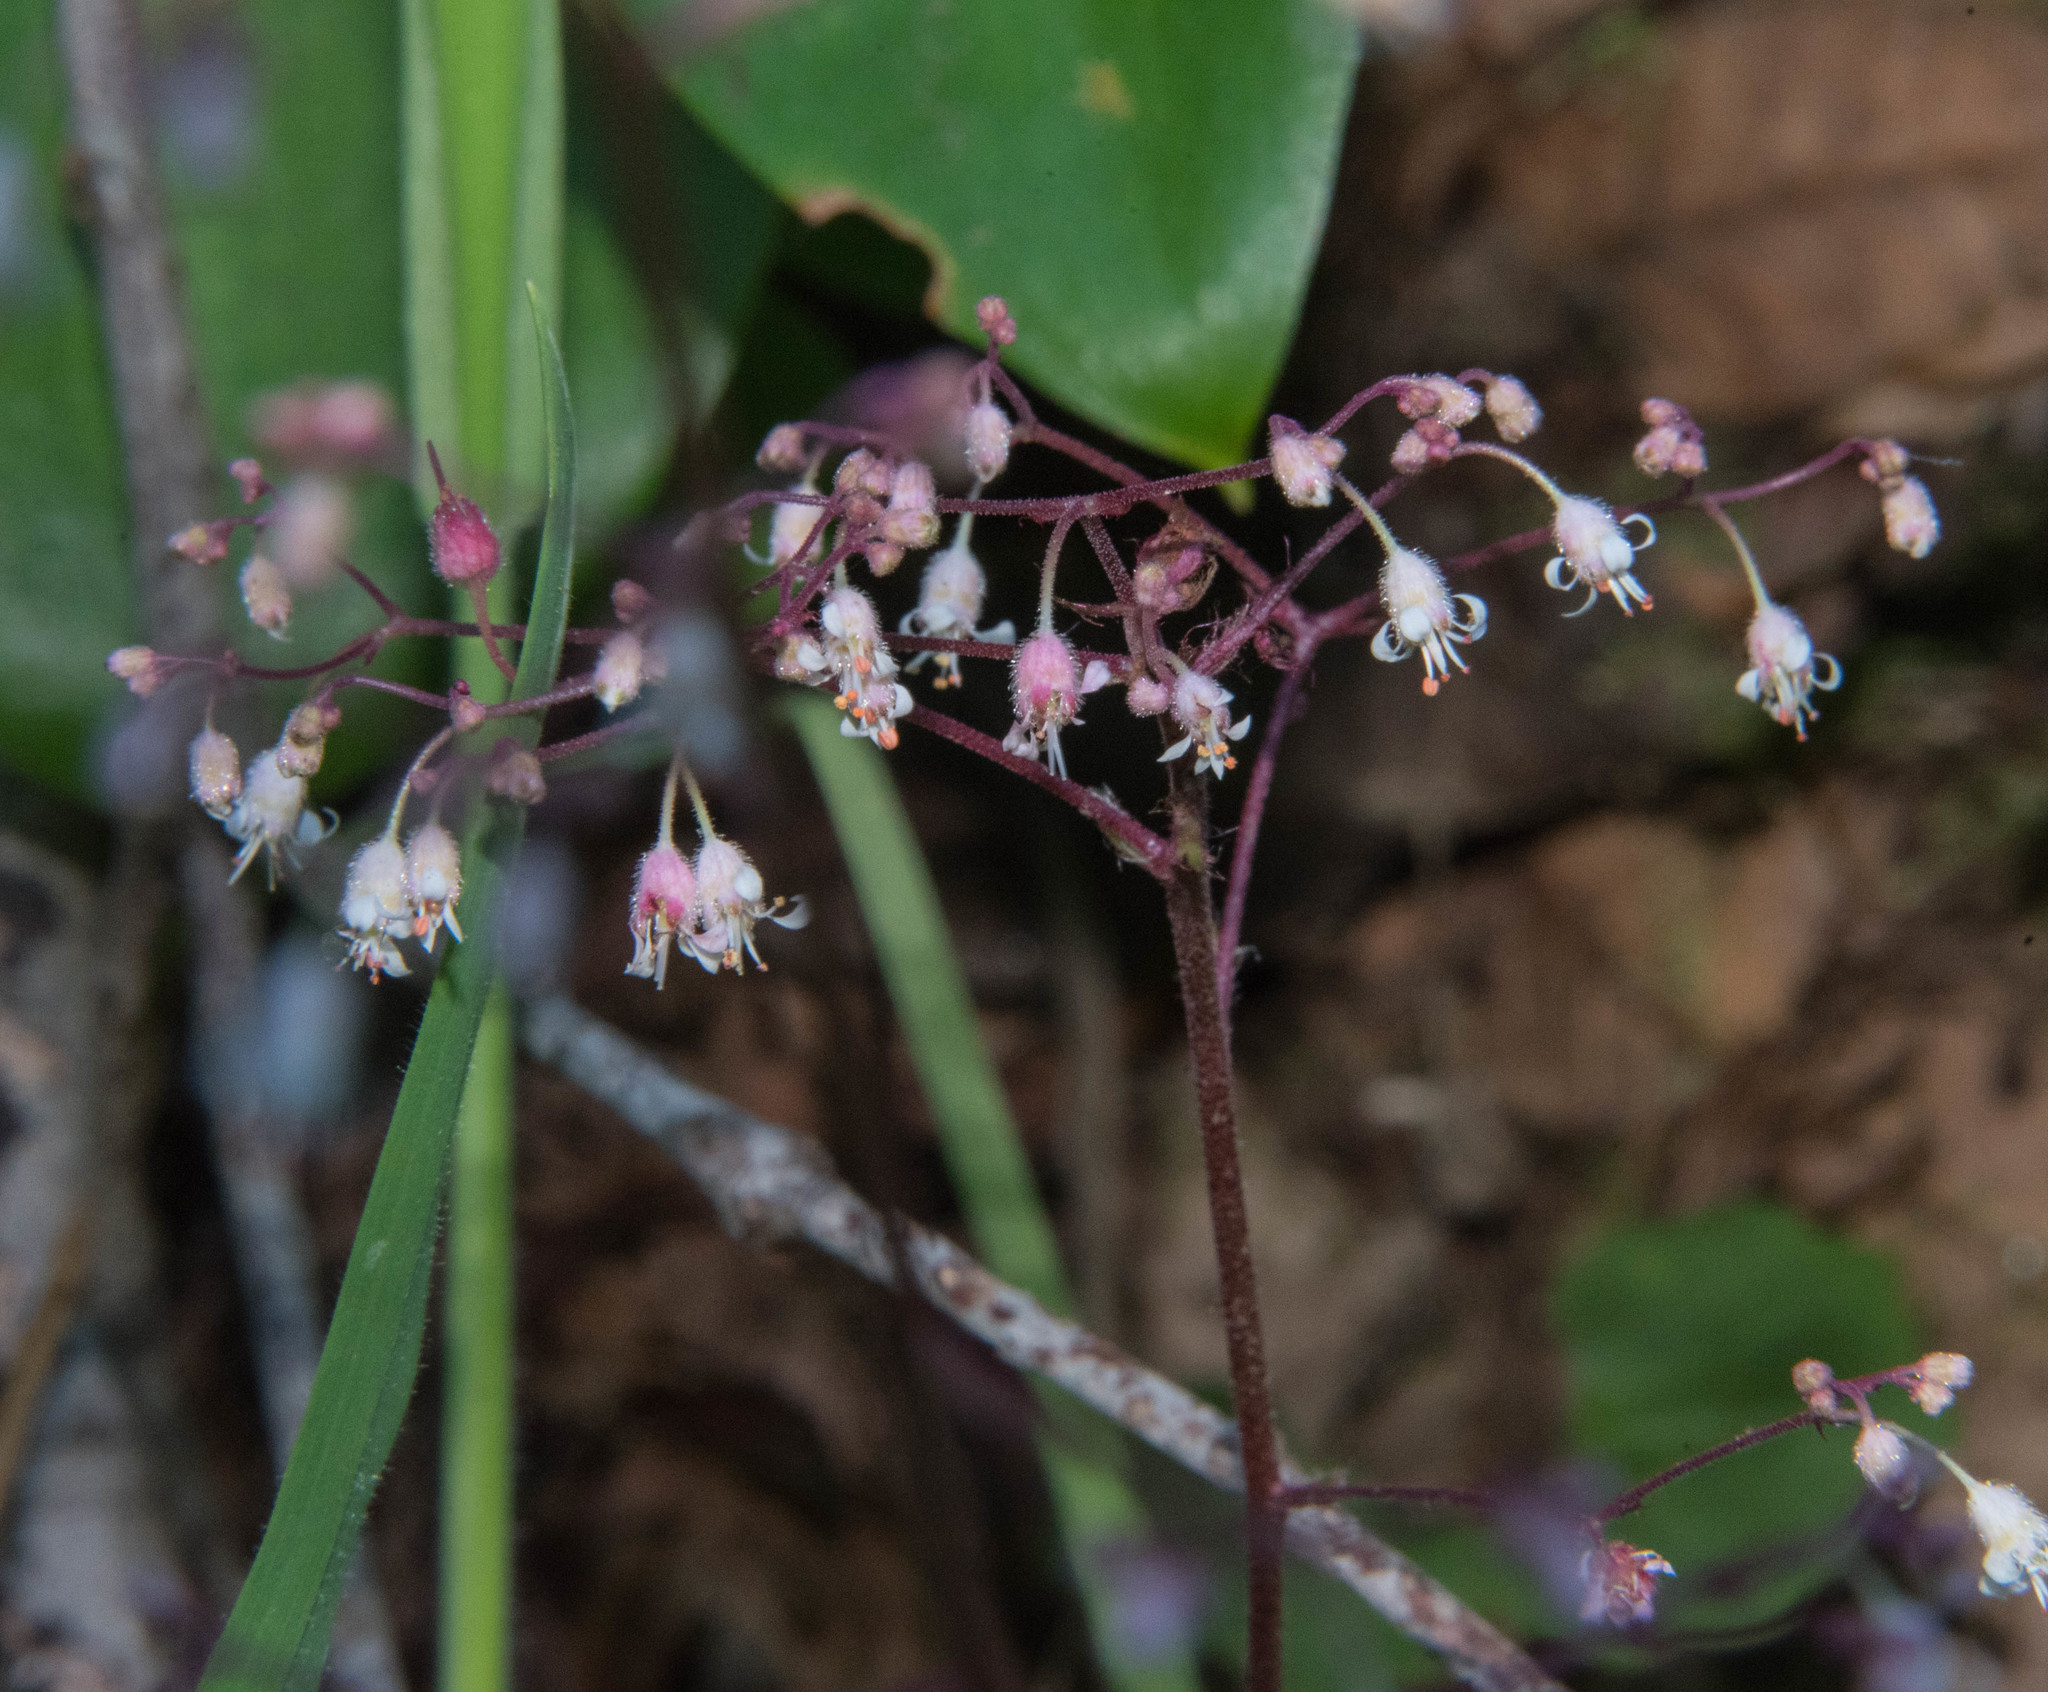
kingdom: Plantae
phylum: Tracheophyta
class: Magnoliopsida
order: Saxifragales
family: Saxifragaceae
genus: Heuchera
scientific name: Heuchera micrantha
